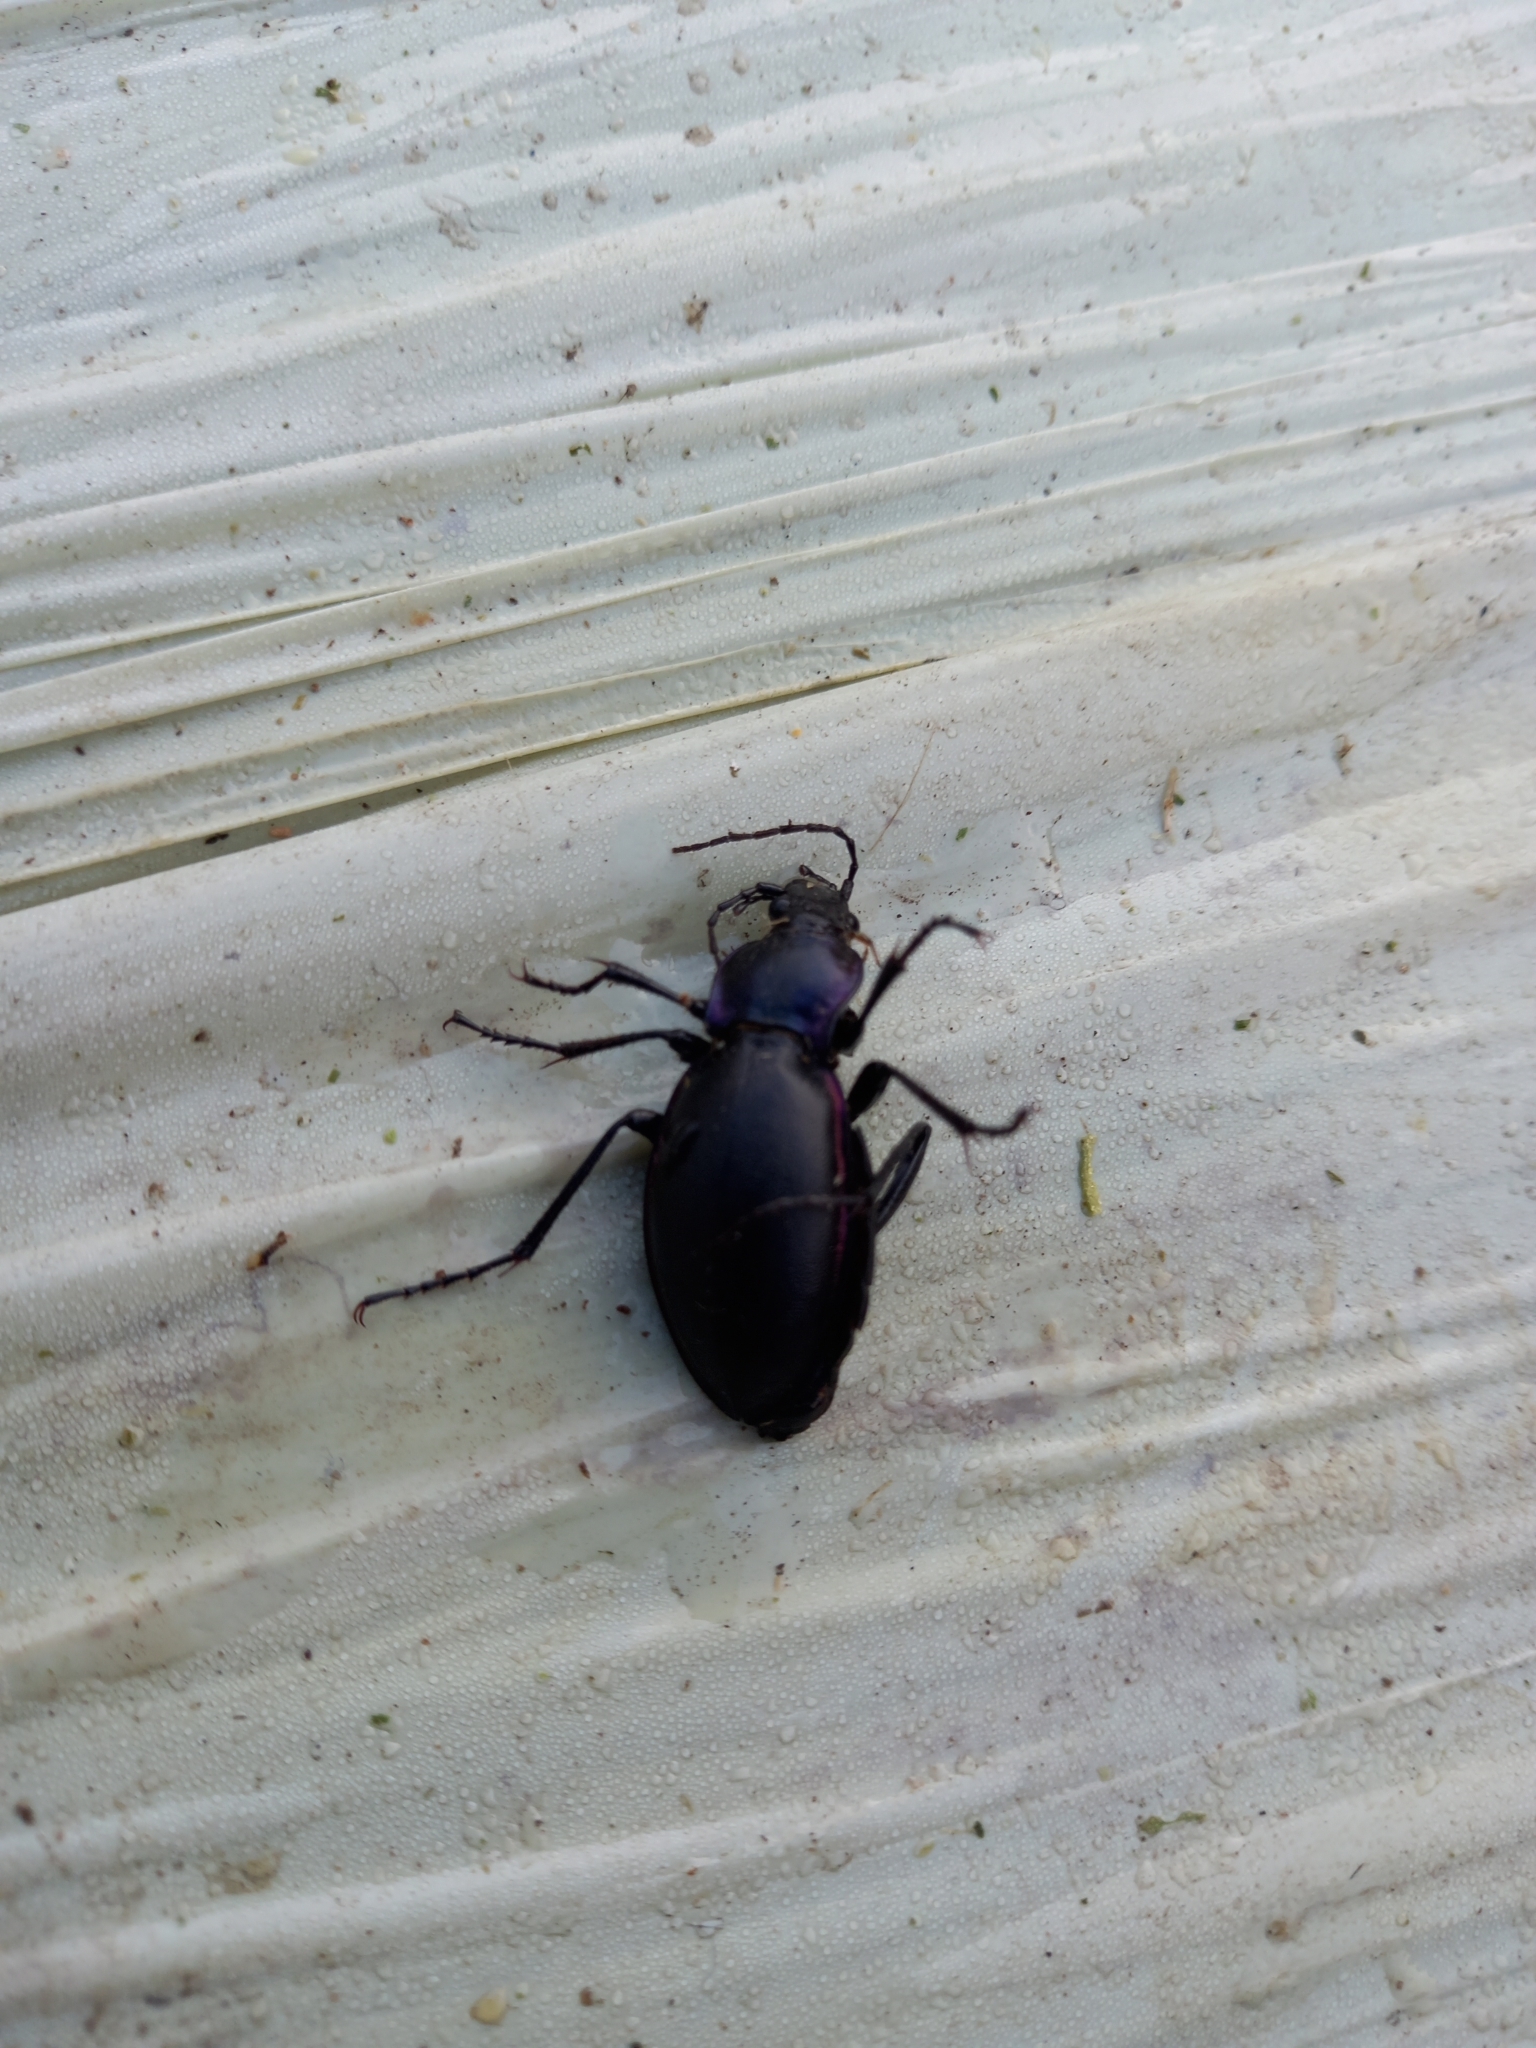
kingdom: Animalia
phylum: Arthropoda
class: Insecta
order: Coleoptera
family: Carabidae
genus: Carabus
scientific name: Carabus violaceus
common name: Violet ground beetle
